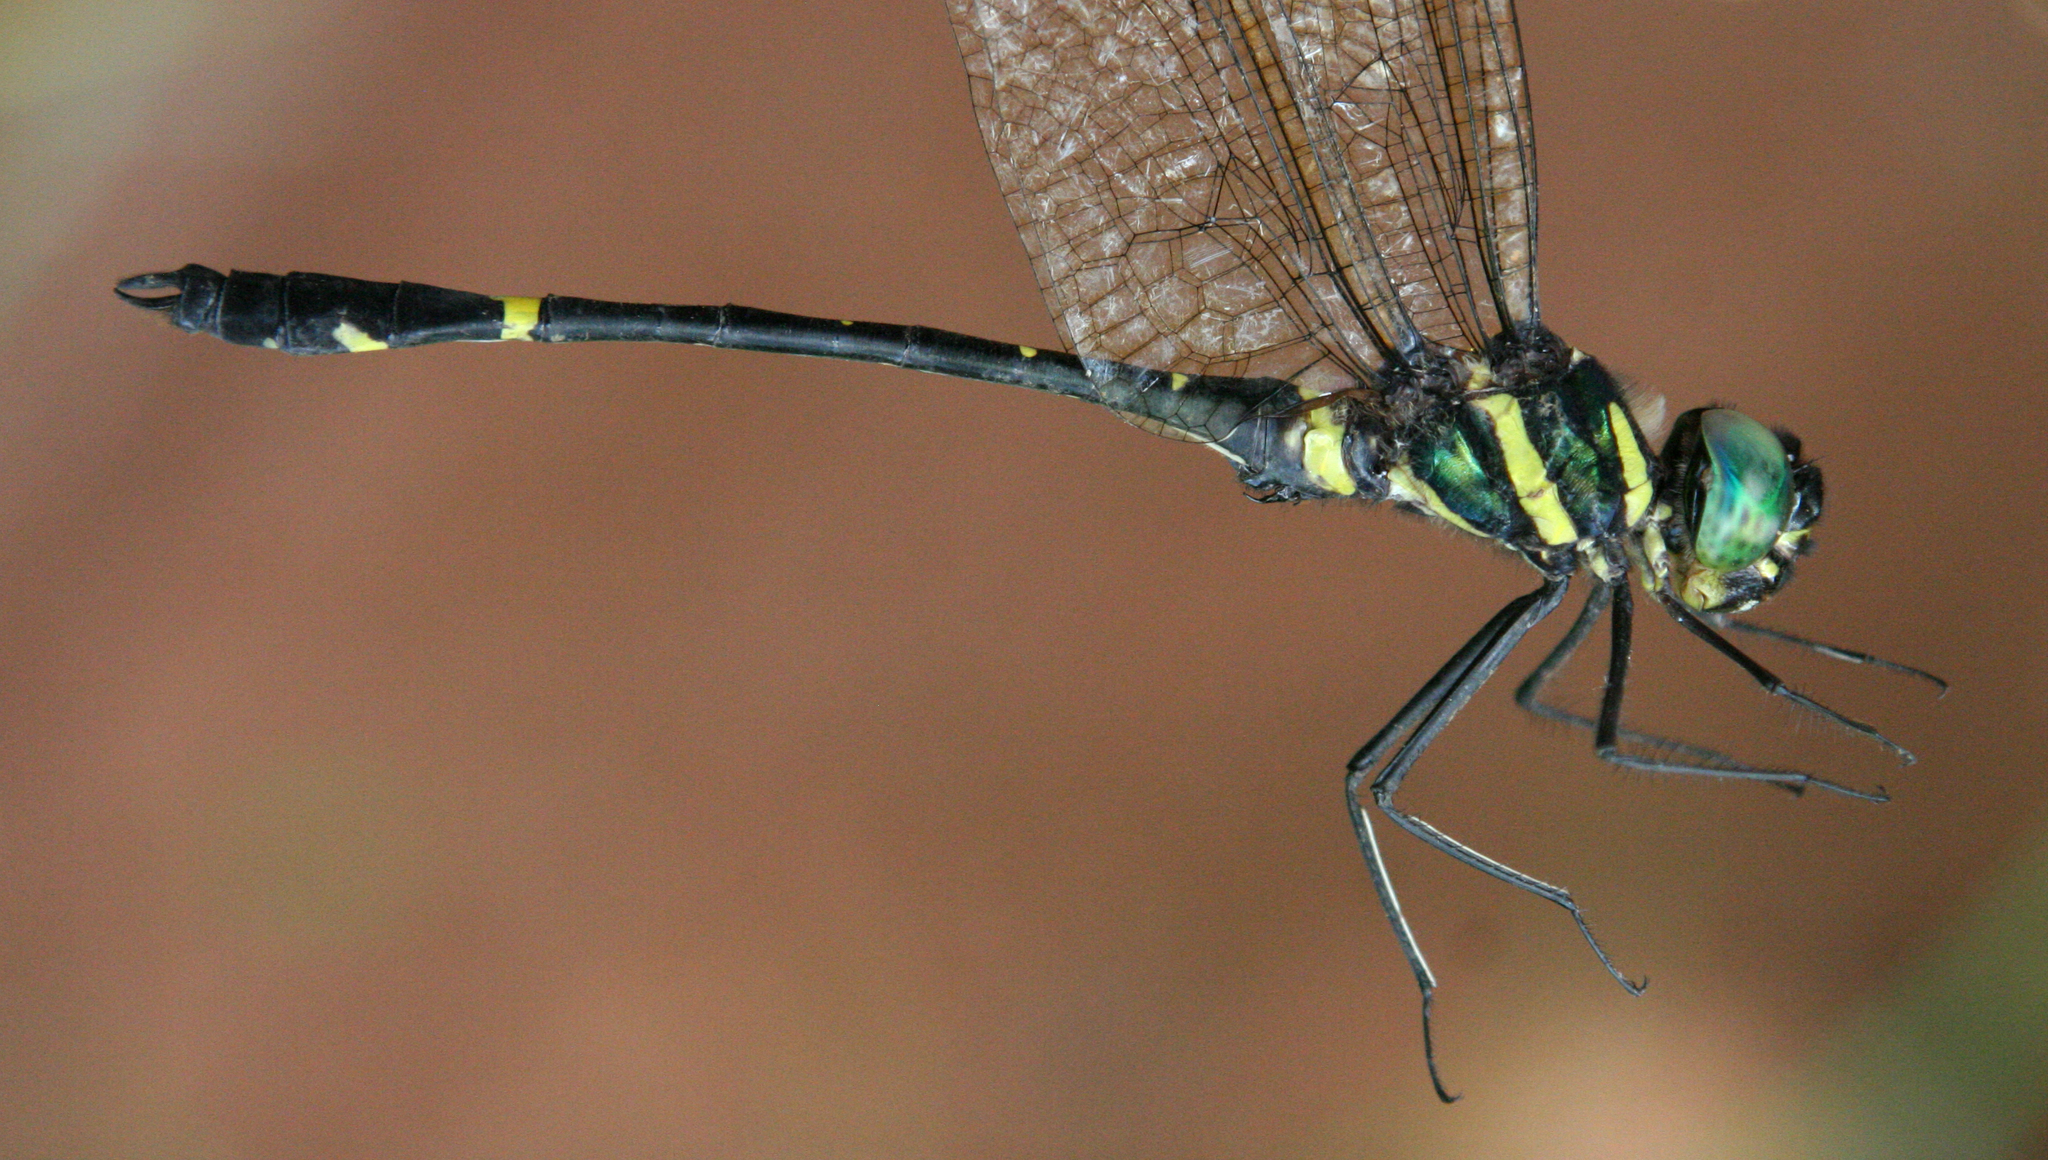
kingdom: Animalia
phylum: Arthropoda
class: Insecta
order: Odonata
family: Macromiidae
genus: Macromia
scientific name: Macromia flavocolorata
